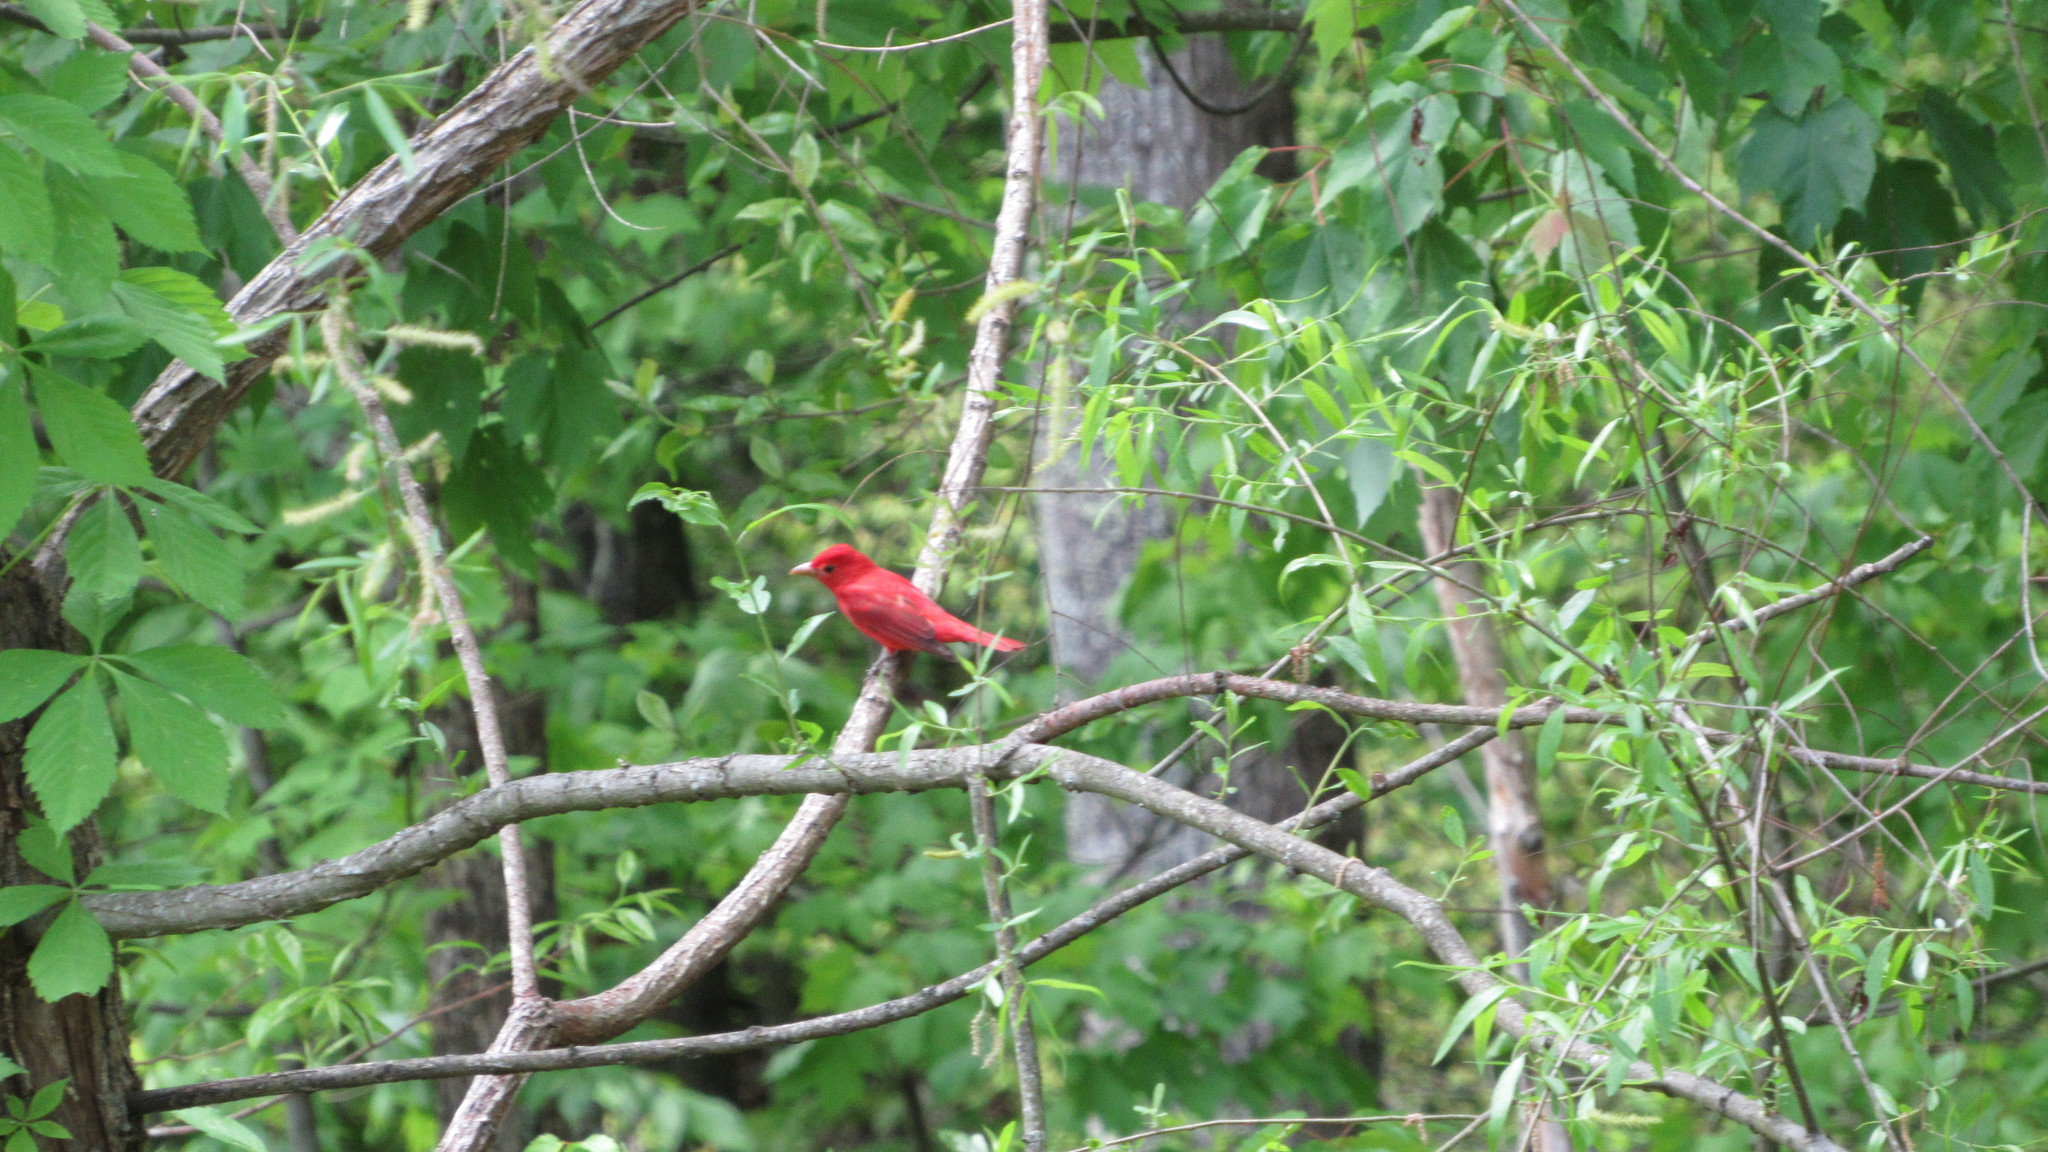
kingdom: Animalia
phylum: Chordata
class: Aves
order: Passeriformes
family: Cardinalidae
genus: Piranga
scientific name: Piranga rubra
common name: Summer tanager
